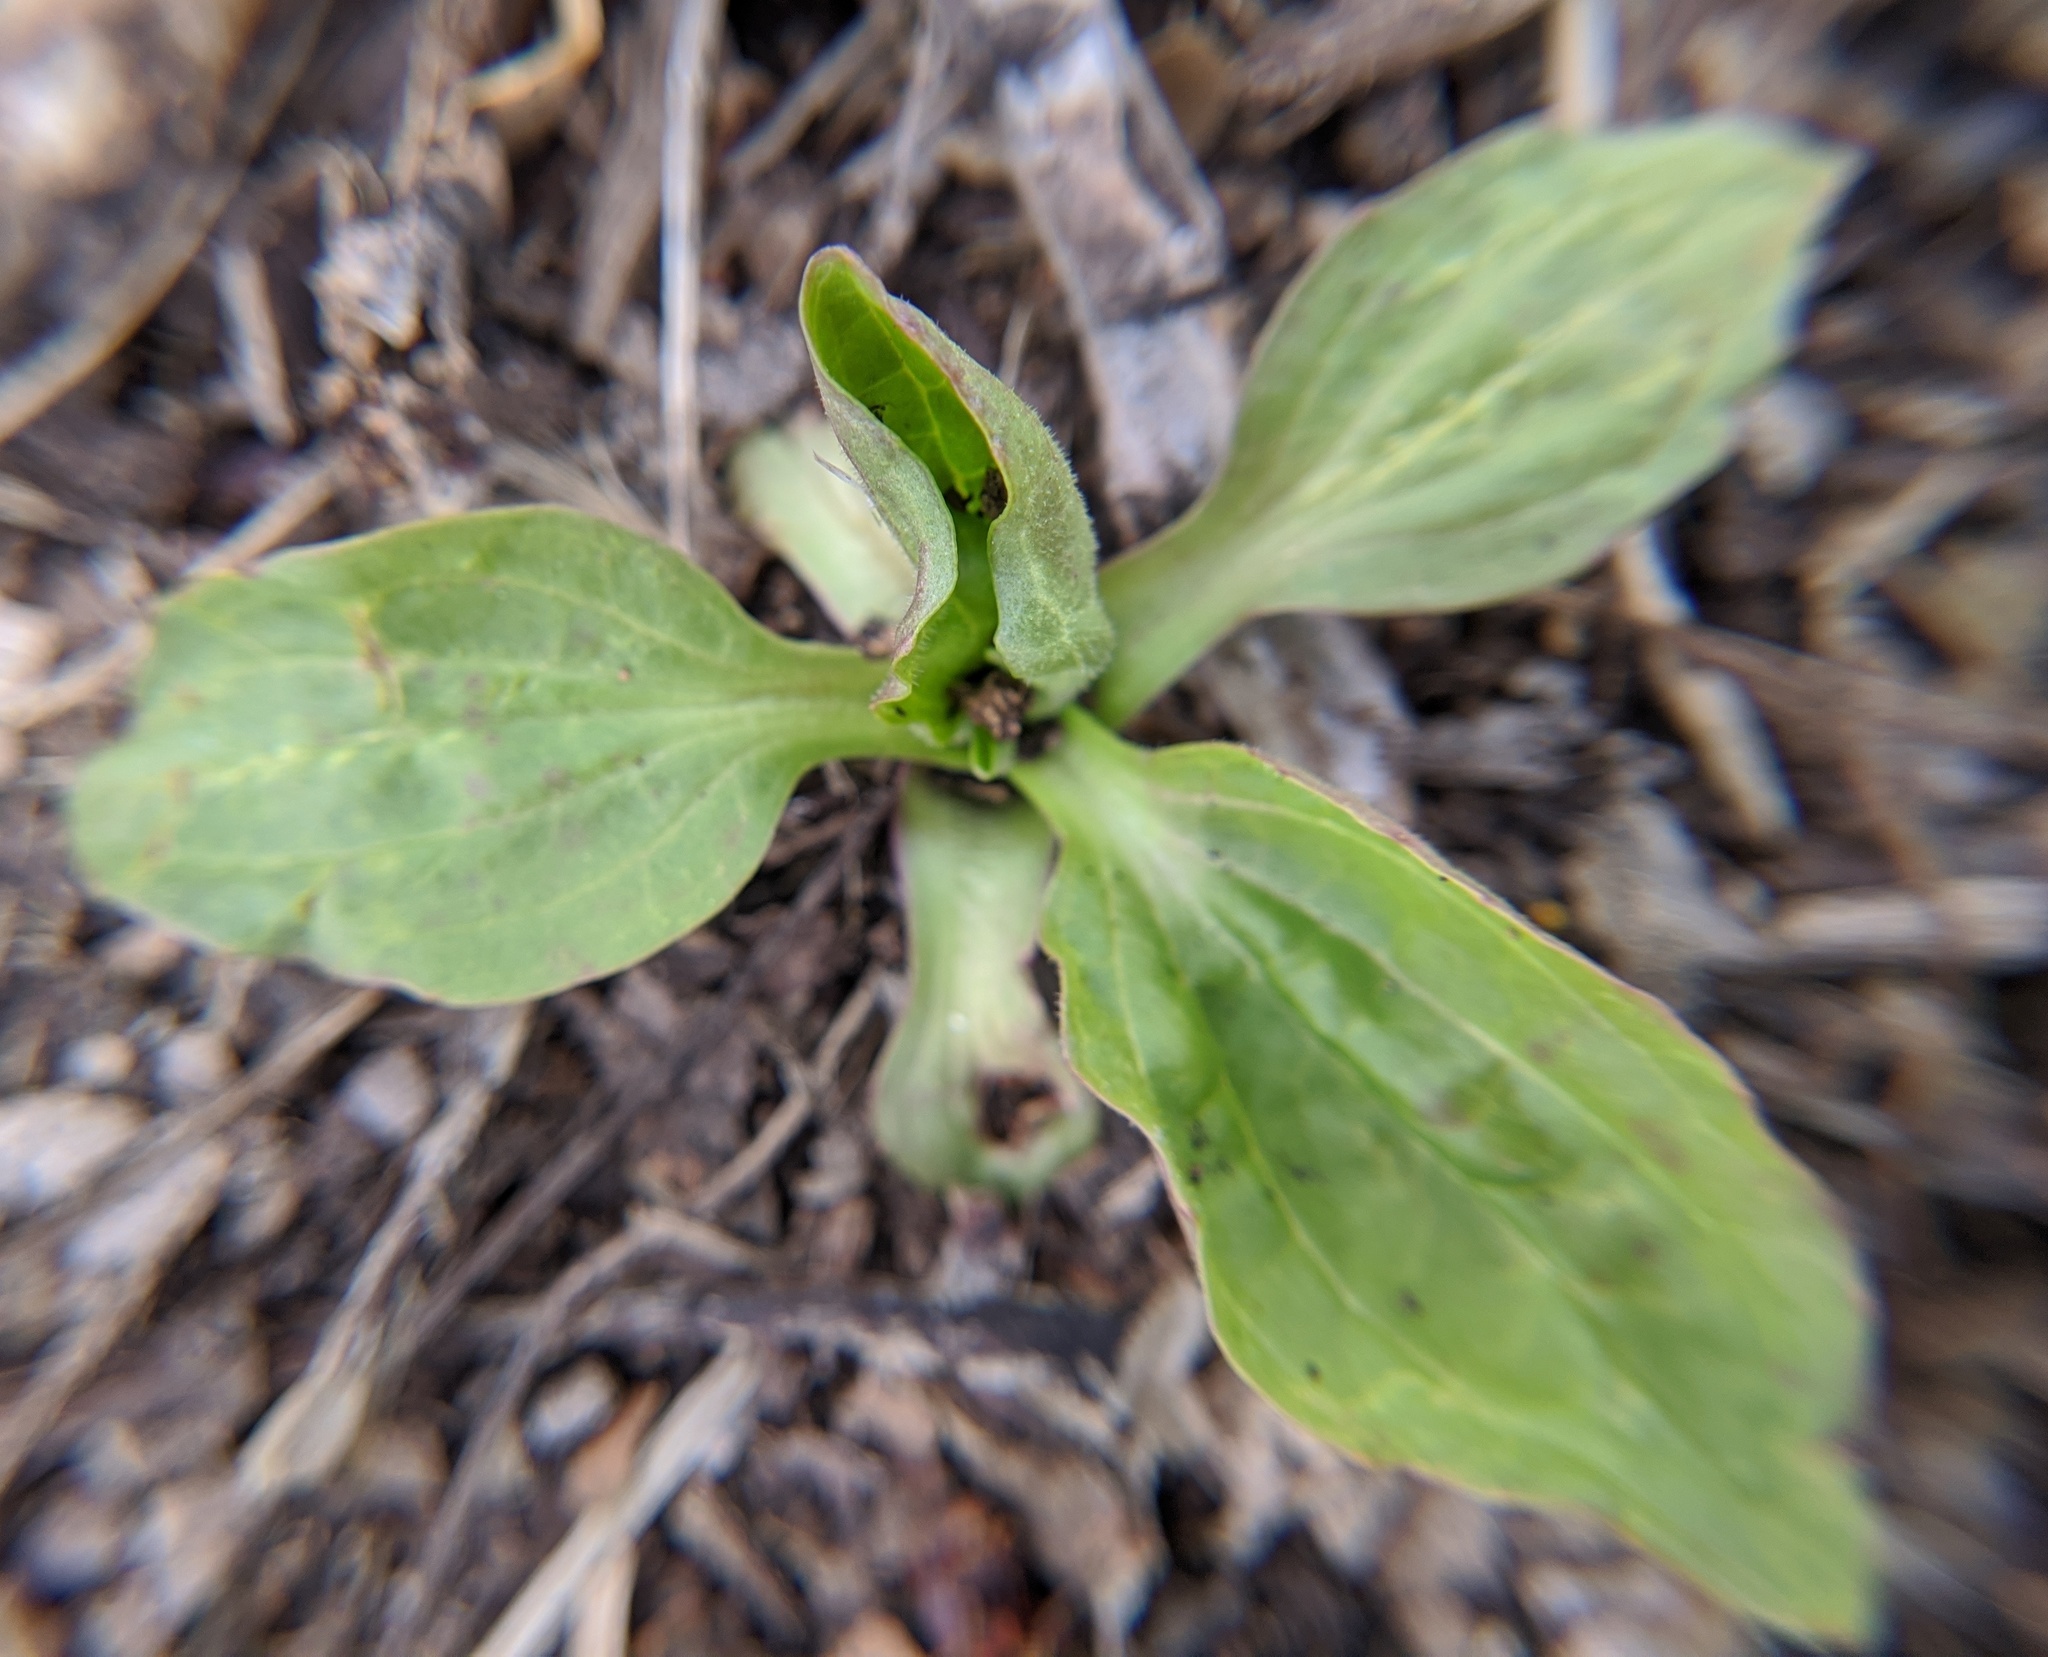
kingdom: Plantae
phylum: Tracheophyta
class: Magnoliopsida
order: Lamiales
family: Plantaginaceae
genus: Plantago
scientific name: Plantago major
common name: Common plantain
